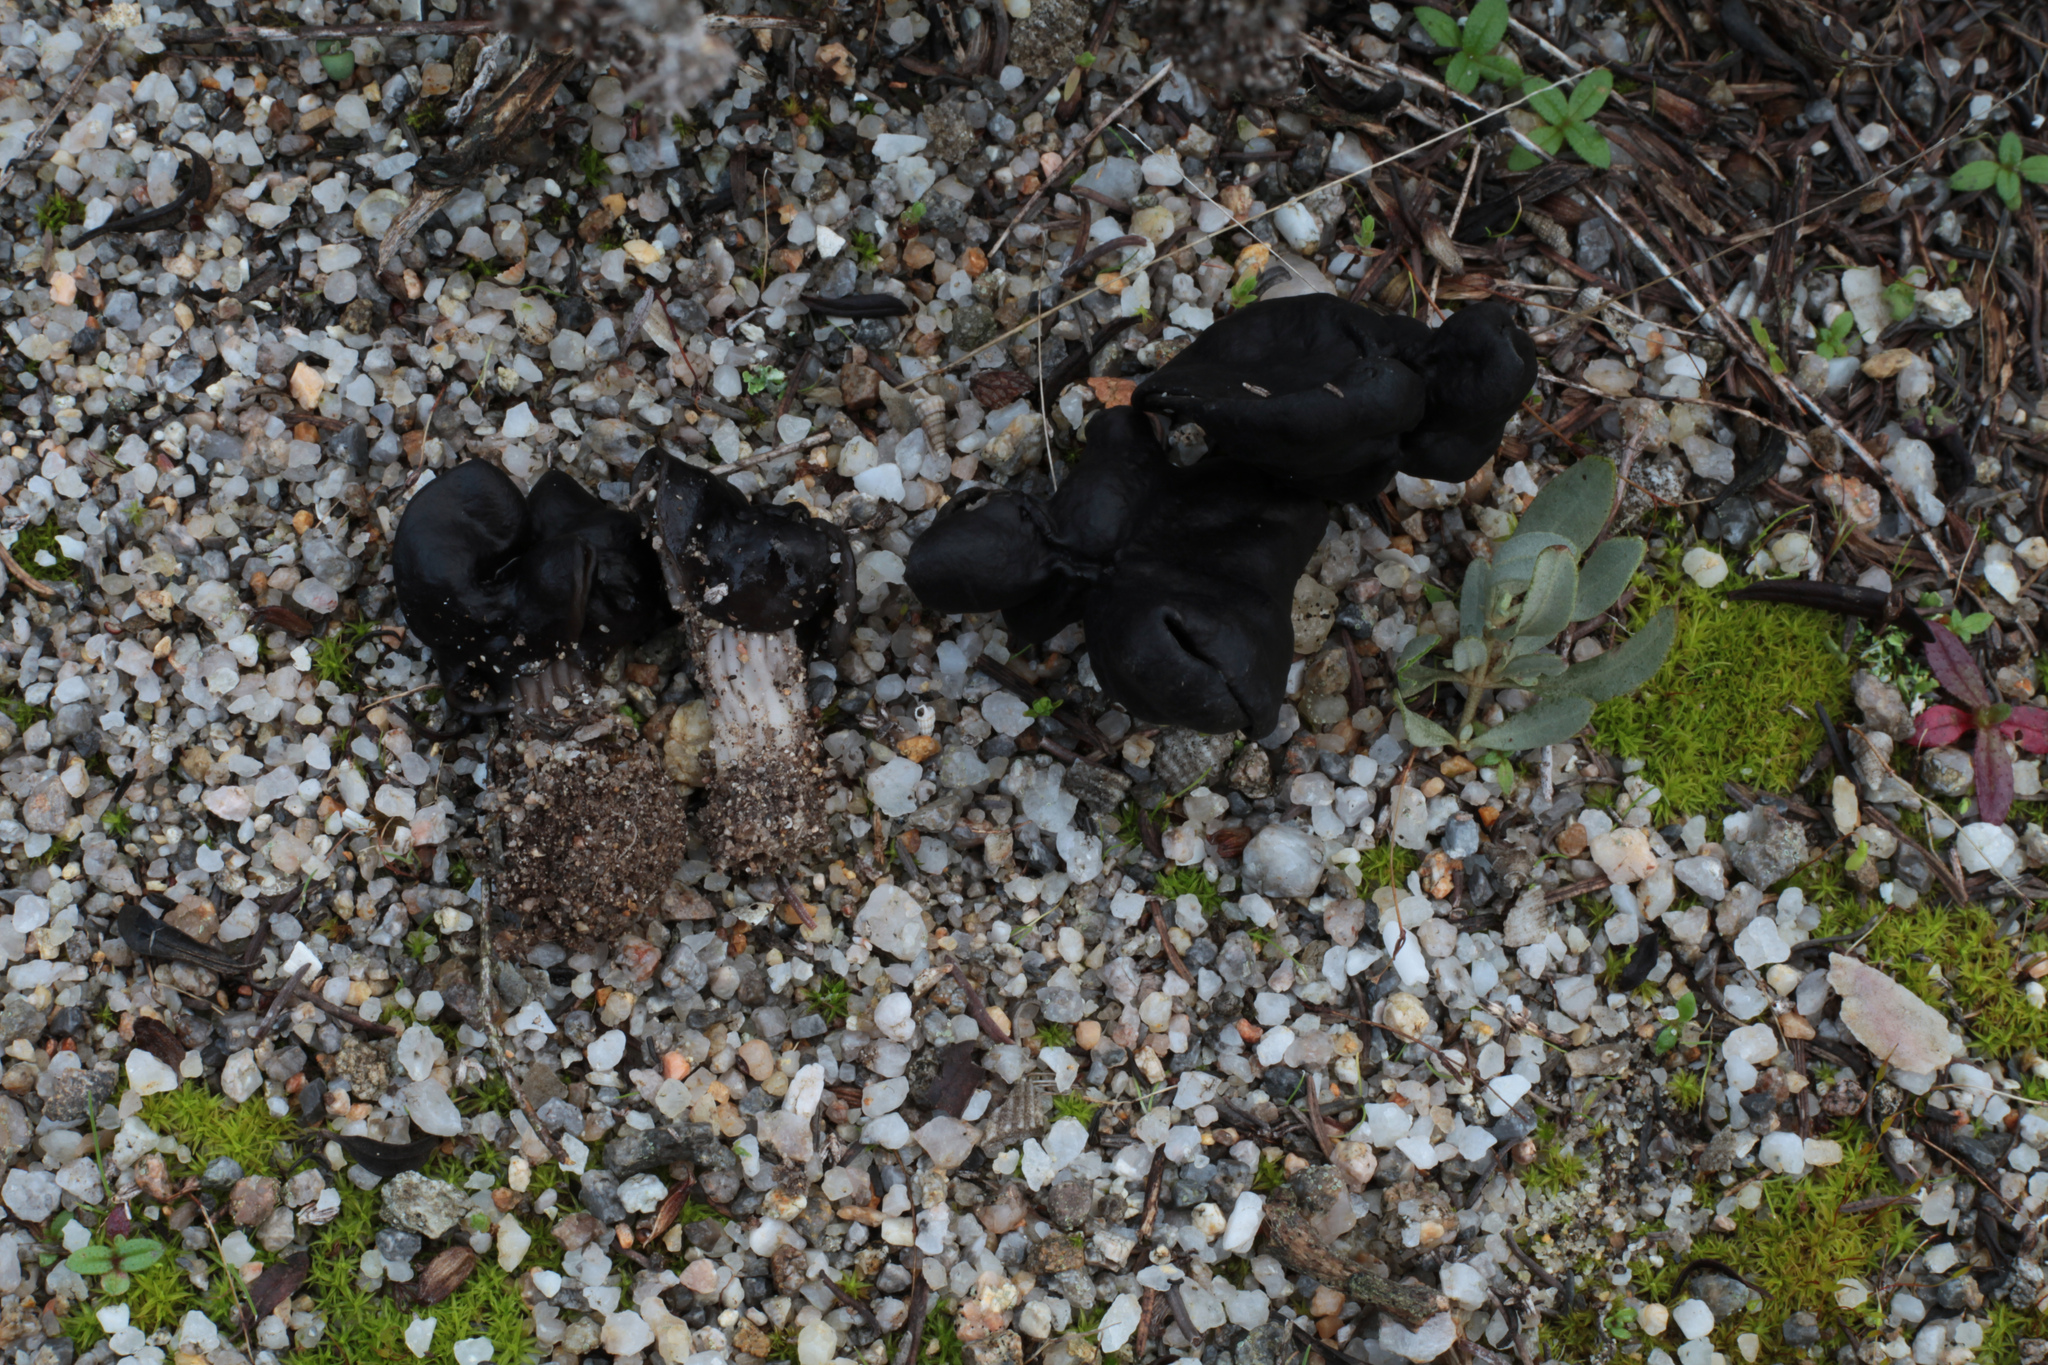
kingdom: Fungi
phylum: Ascomycota
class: Pezizomycetes
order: Pezizales
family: Helvellaceae
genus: Helvella
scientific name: Helvella juniperi
